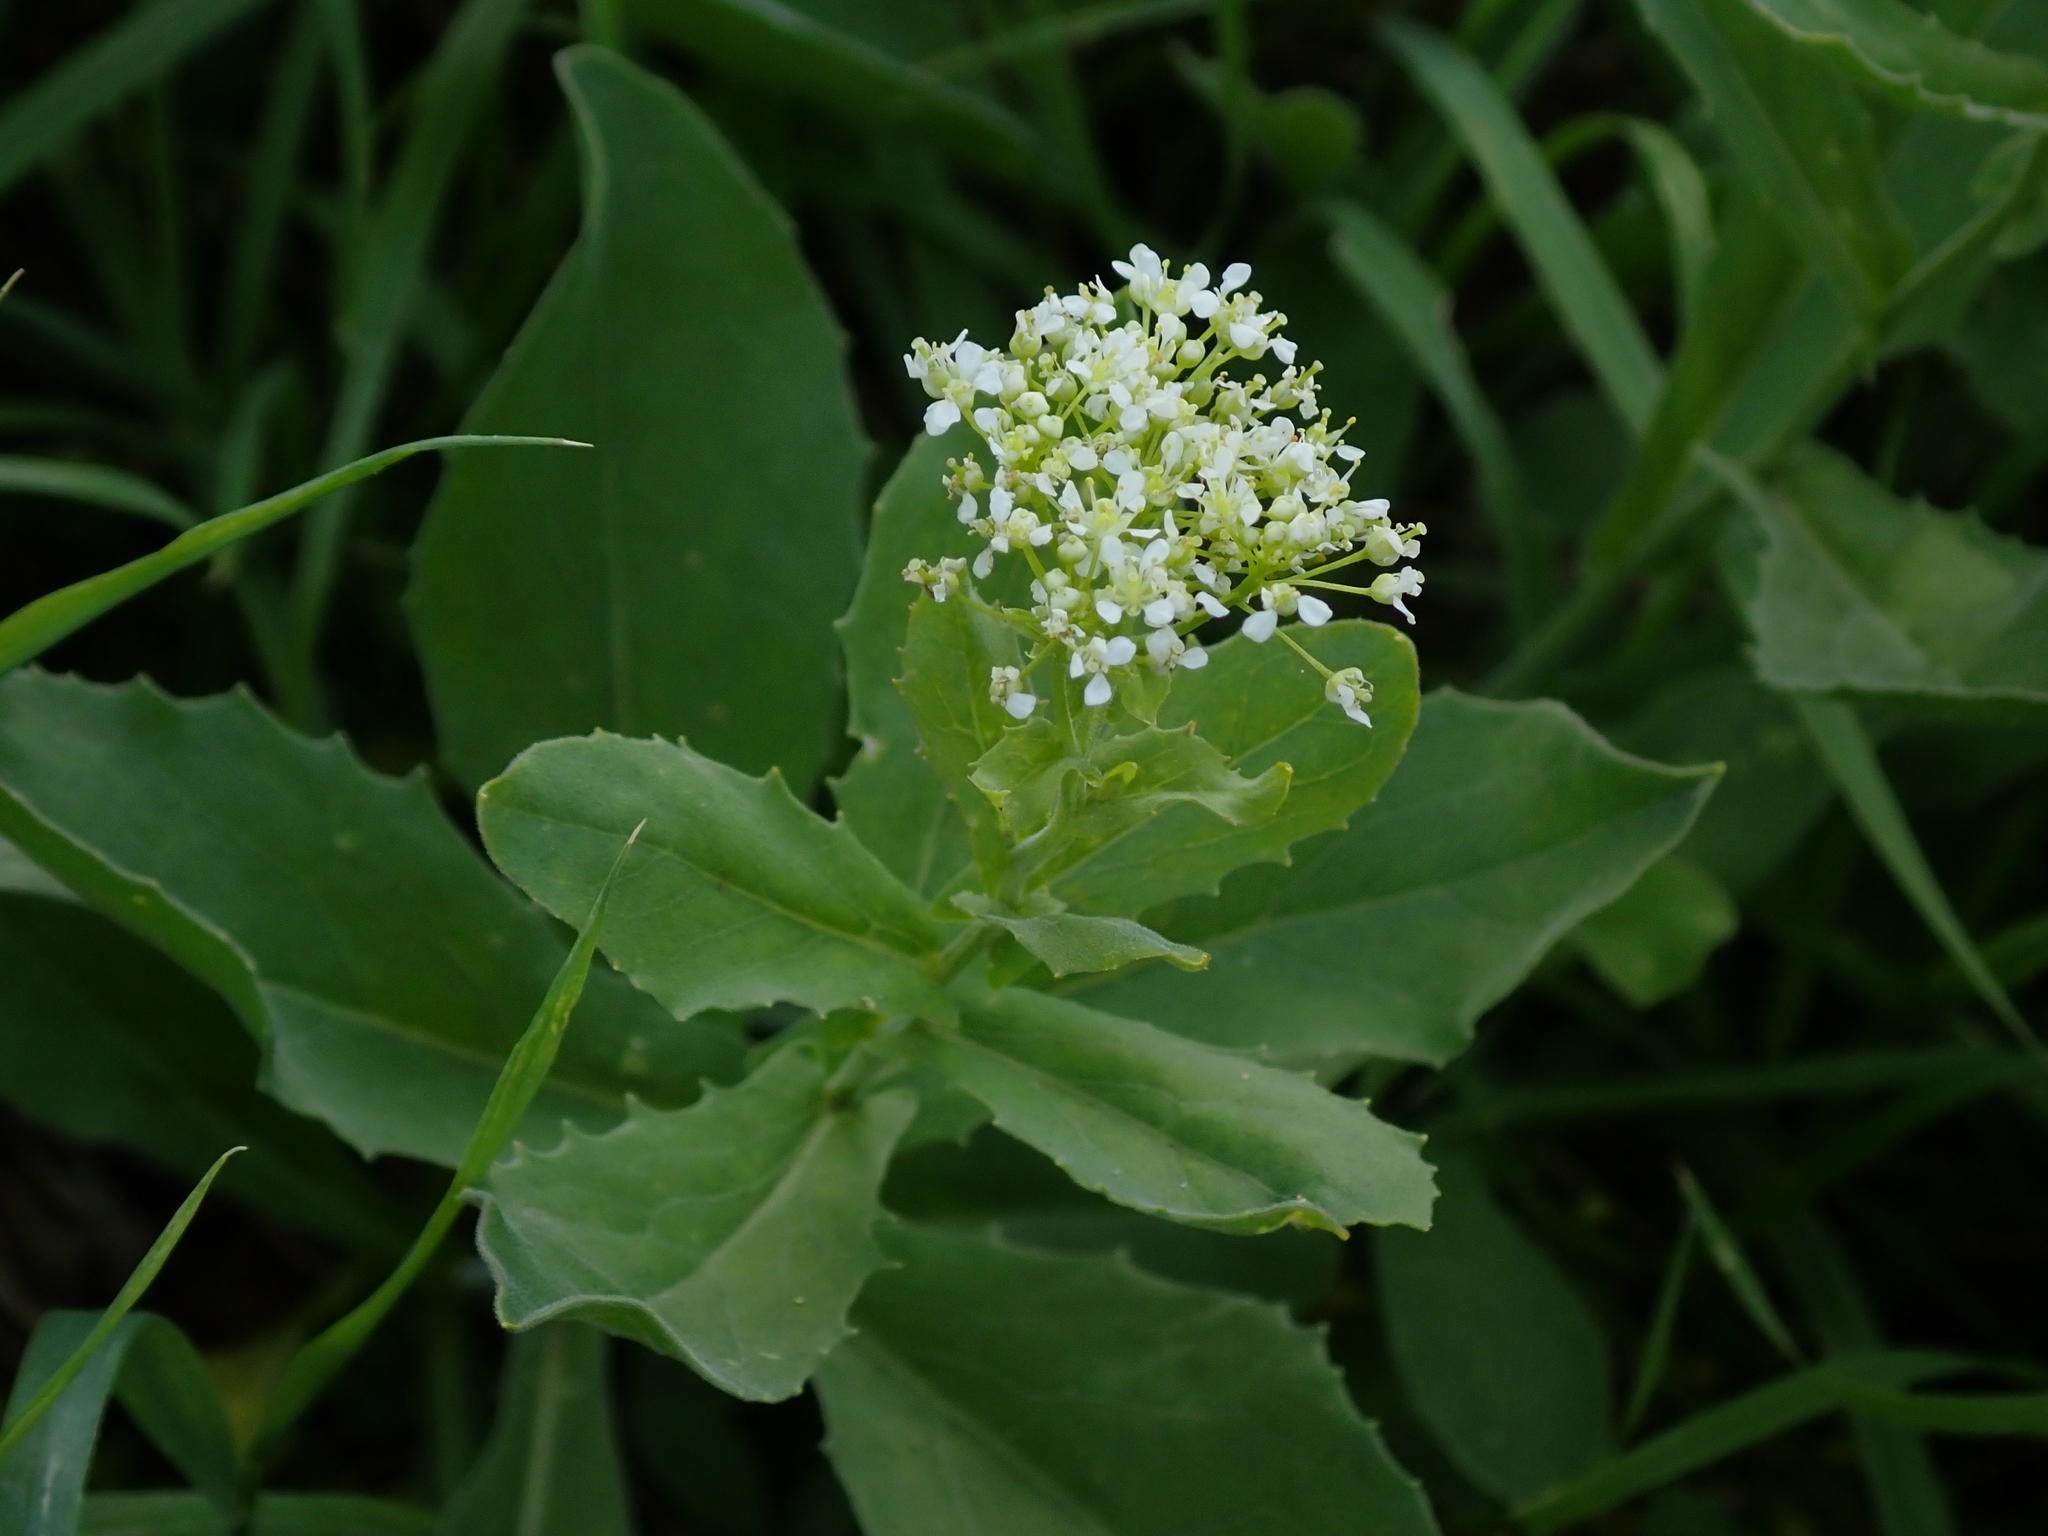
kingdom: Plantae
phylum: Tracheophyta
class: Magnoliopsida
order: Brassicales
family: Brassicaceae
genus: Lepidium
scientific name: Lepidium draba
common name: Hoary cress
